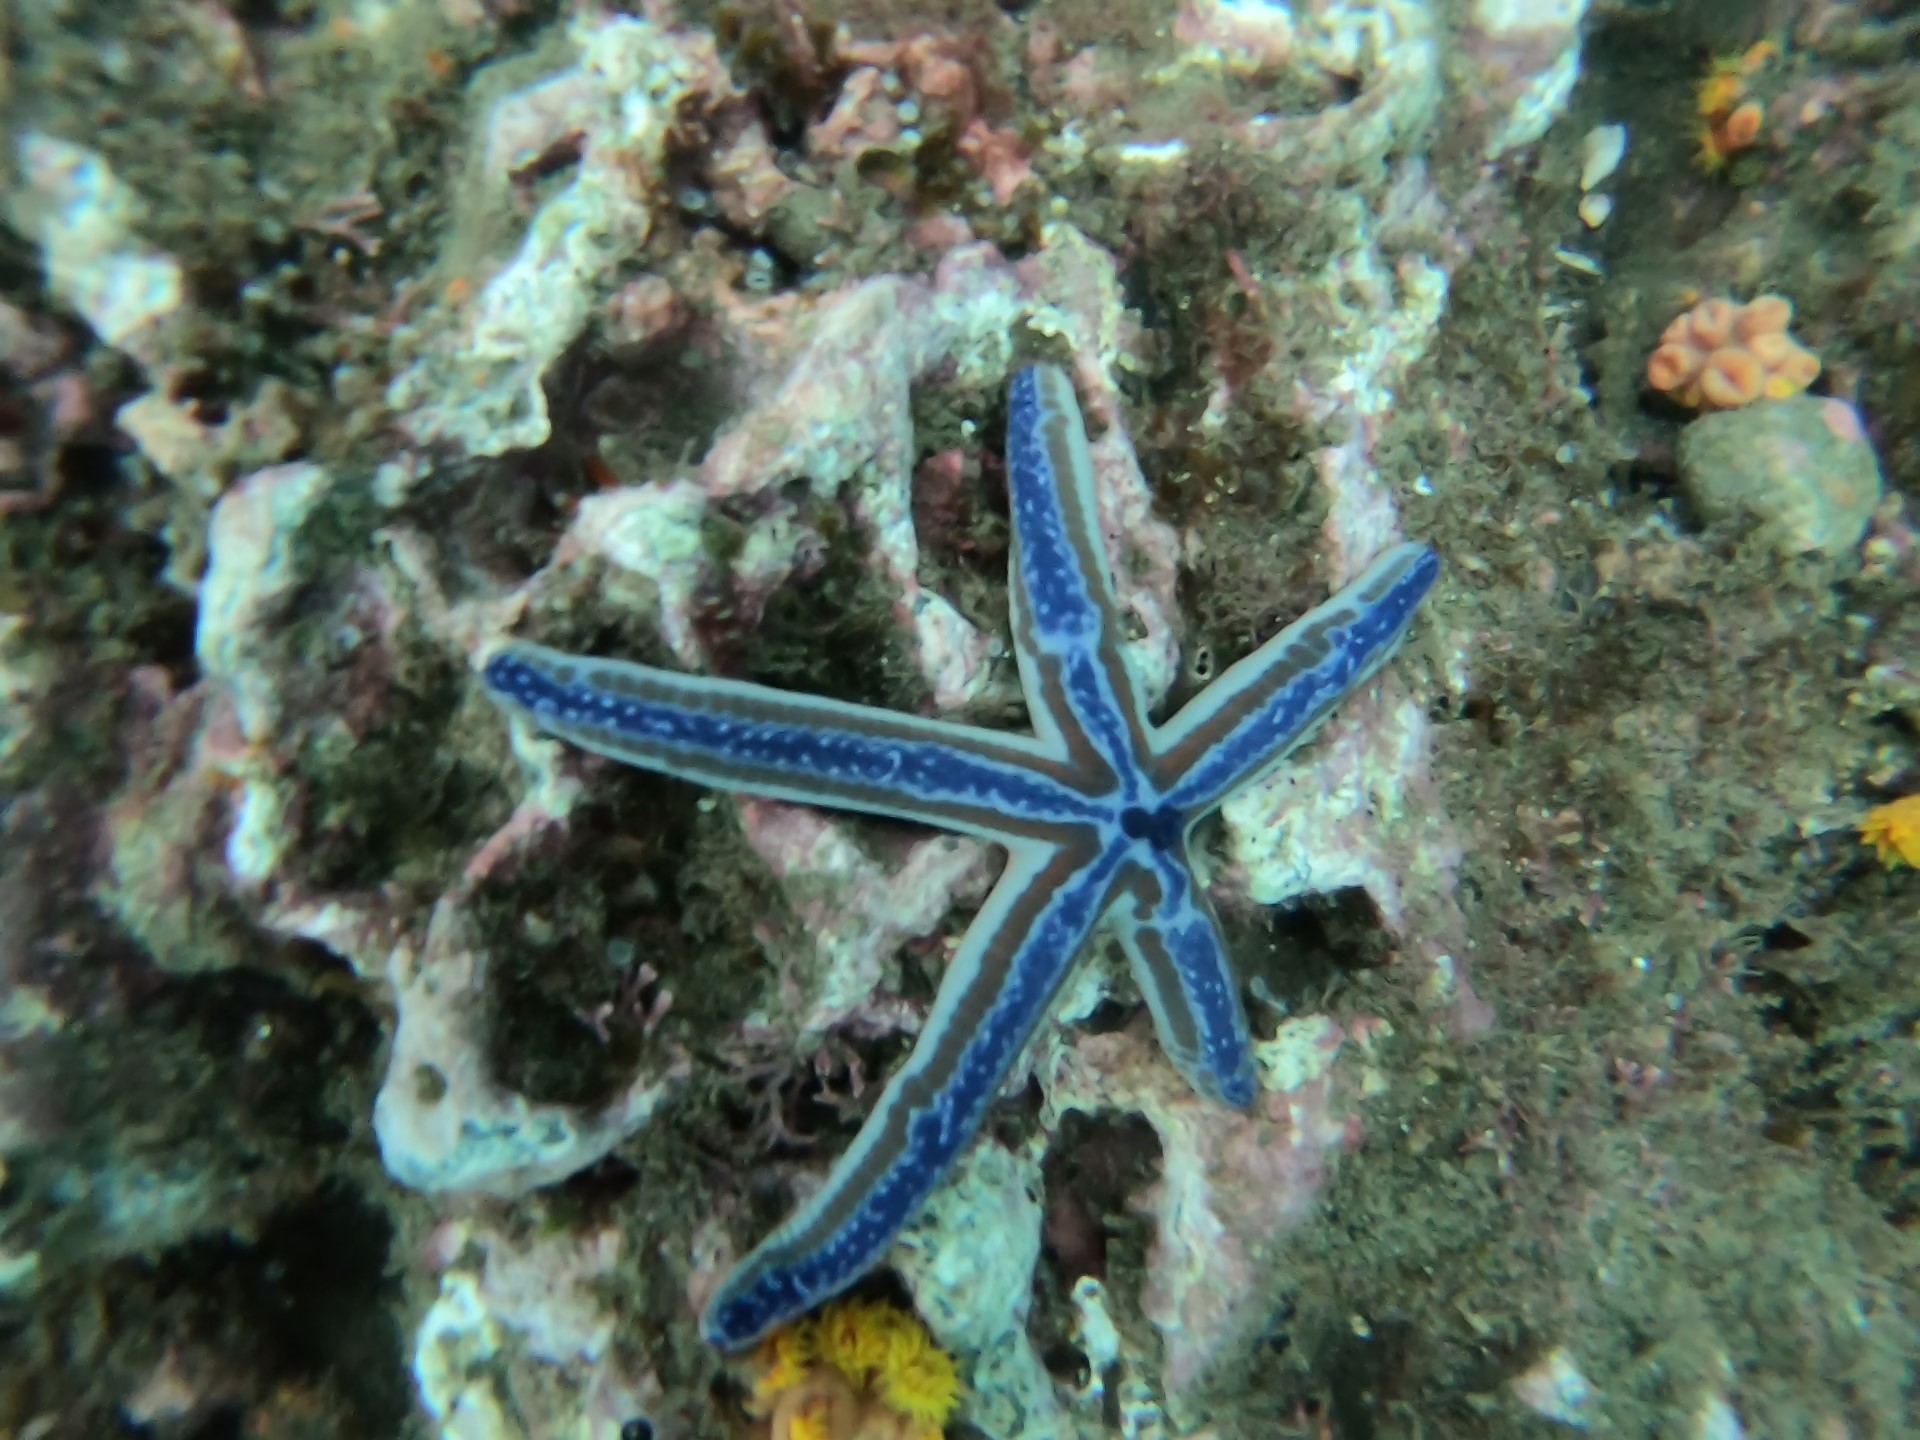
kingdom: Animalia
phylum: Echinodermata
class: Asteroidea
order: Valvatida
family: Ophidiasteridae
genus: Phataria
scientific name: Phataria unifascialis
